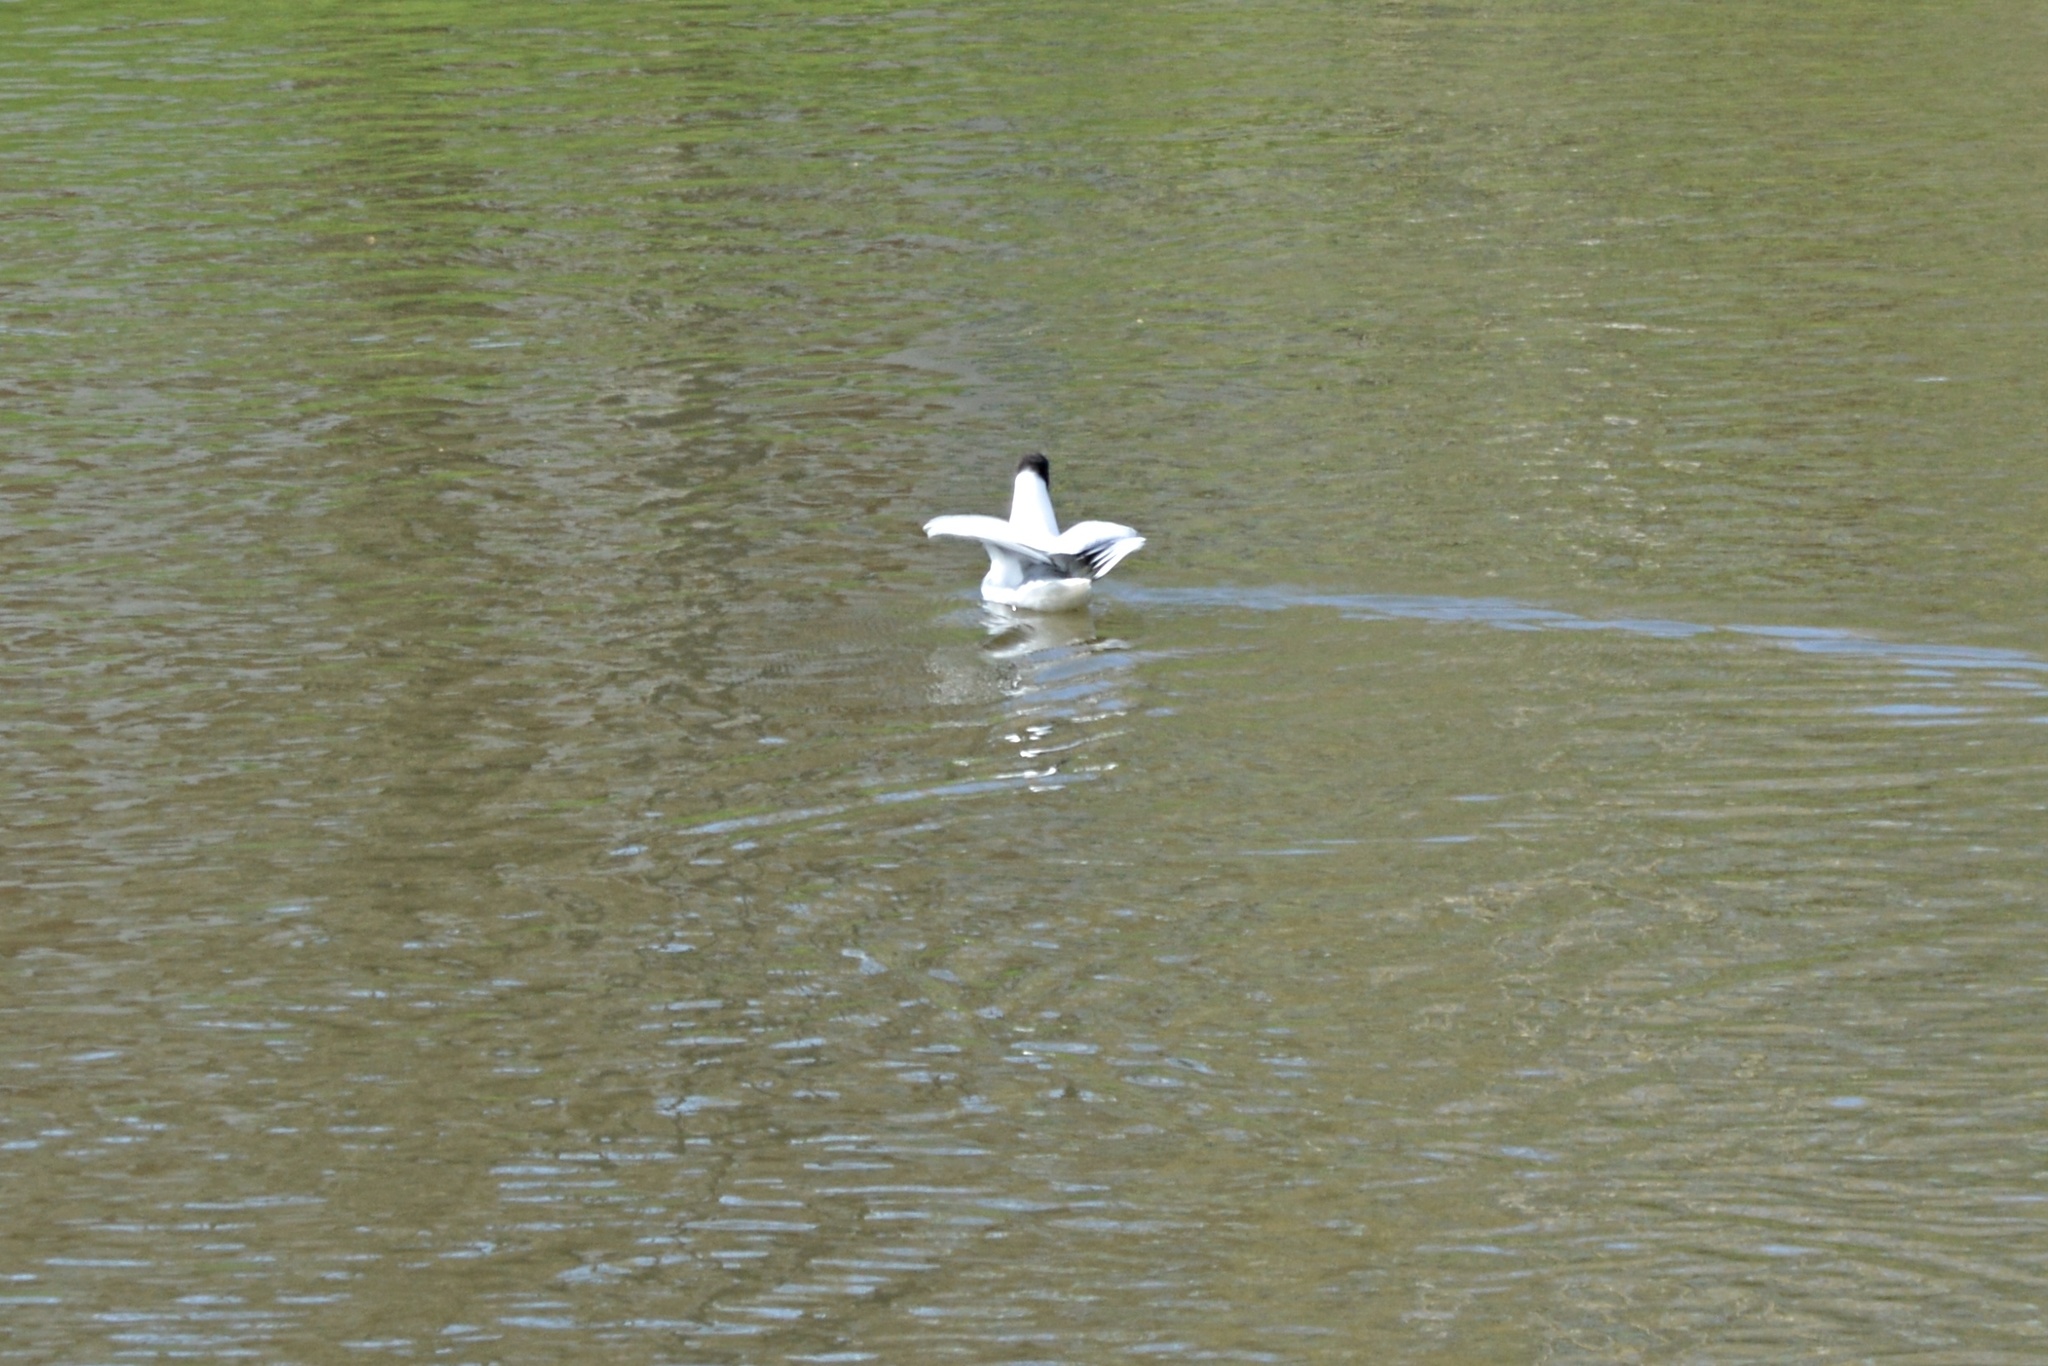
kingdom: Animalia
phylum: Chordata
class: Aves
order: Charadriiformes
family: Laridae
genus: Chroicocephalus
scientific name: Chroicocephalus ridibundus
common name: Black-headed gull
